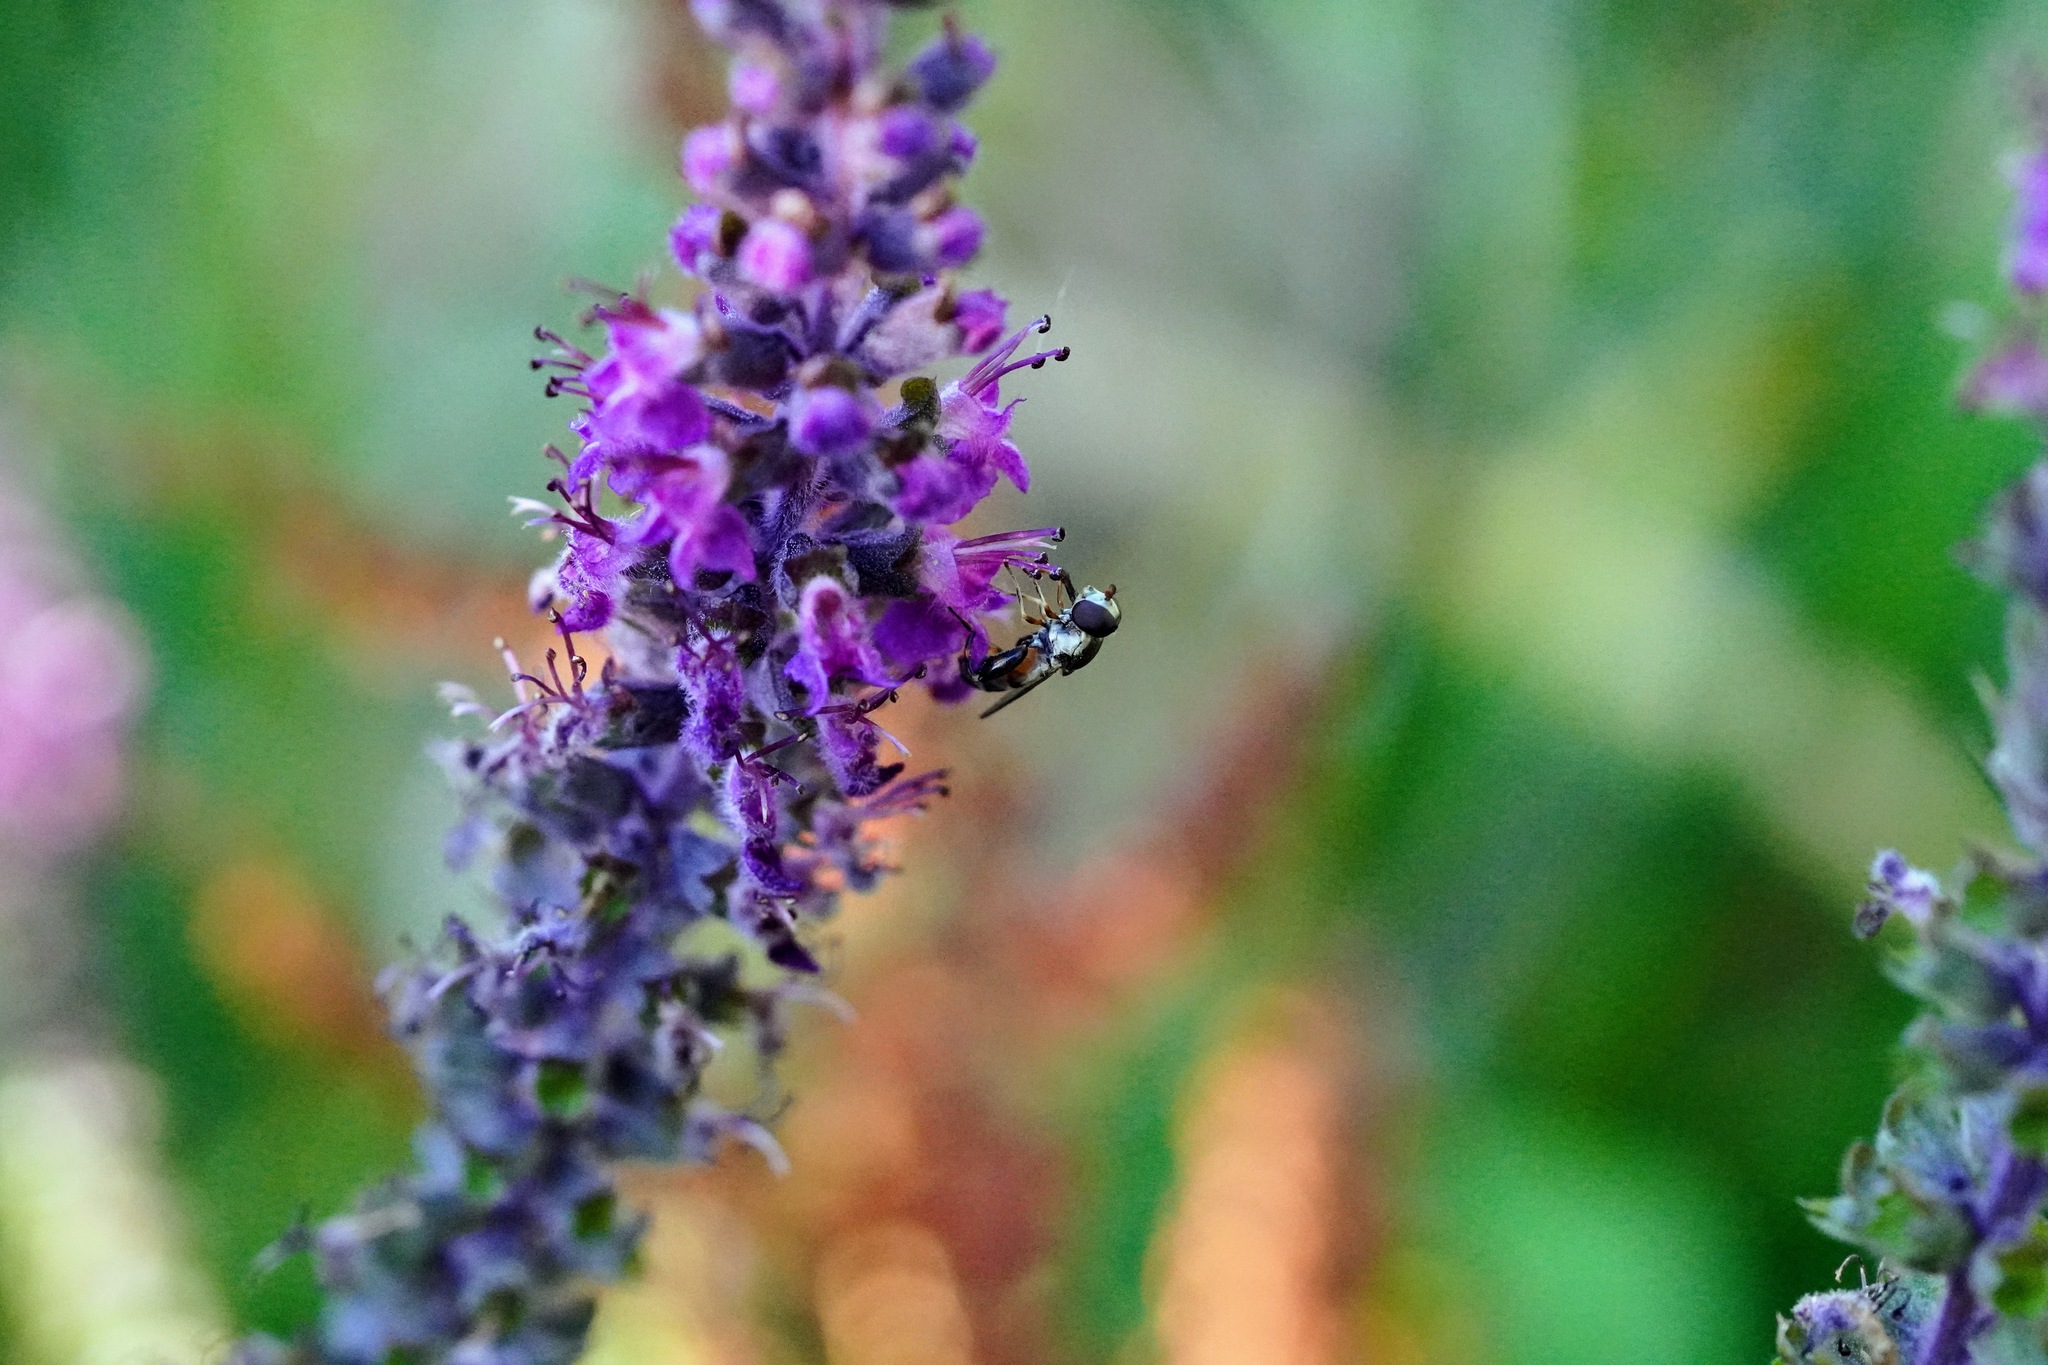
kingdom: Animalia
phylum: Arthropoda
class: Insecta
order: Diptera
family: Syrphidae
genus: Syritta
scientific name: Syritta pipiens
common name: Hover fly
